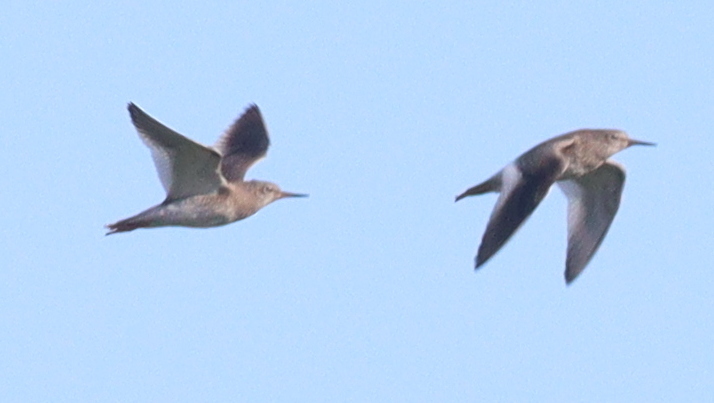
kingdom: Animalia
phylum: Chordata
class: Aves
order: Charadriiformes
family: Scolopacidae
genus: Tringa
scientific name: Tringa totanus
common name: Common redshank
